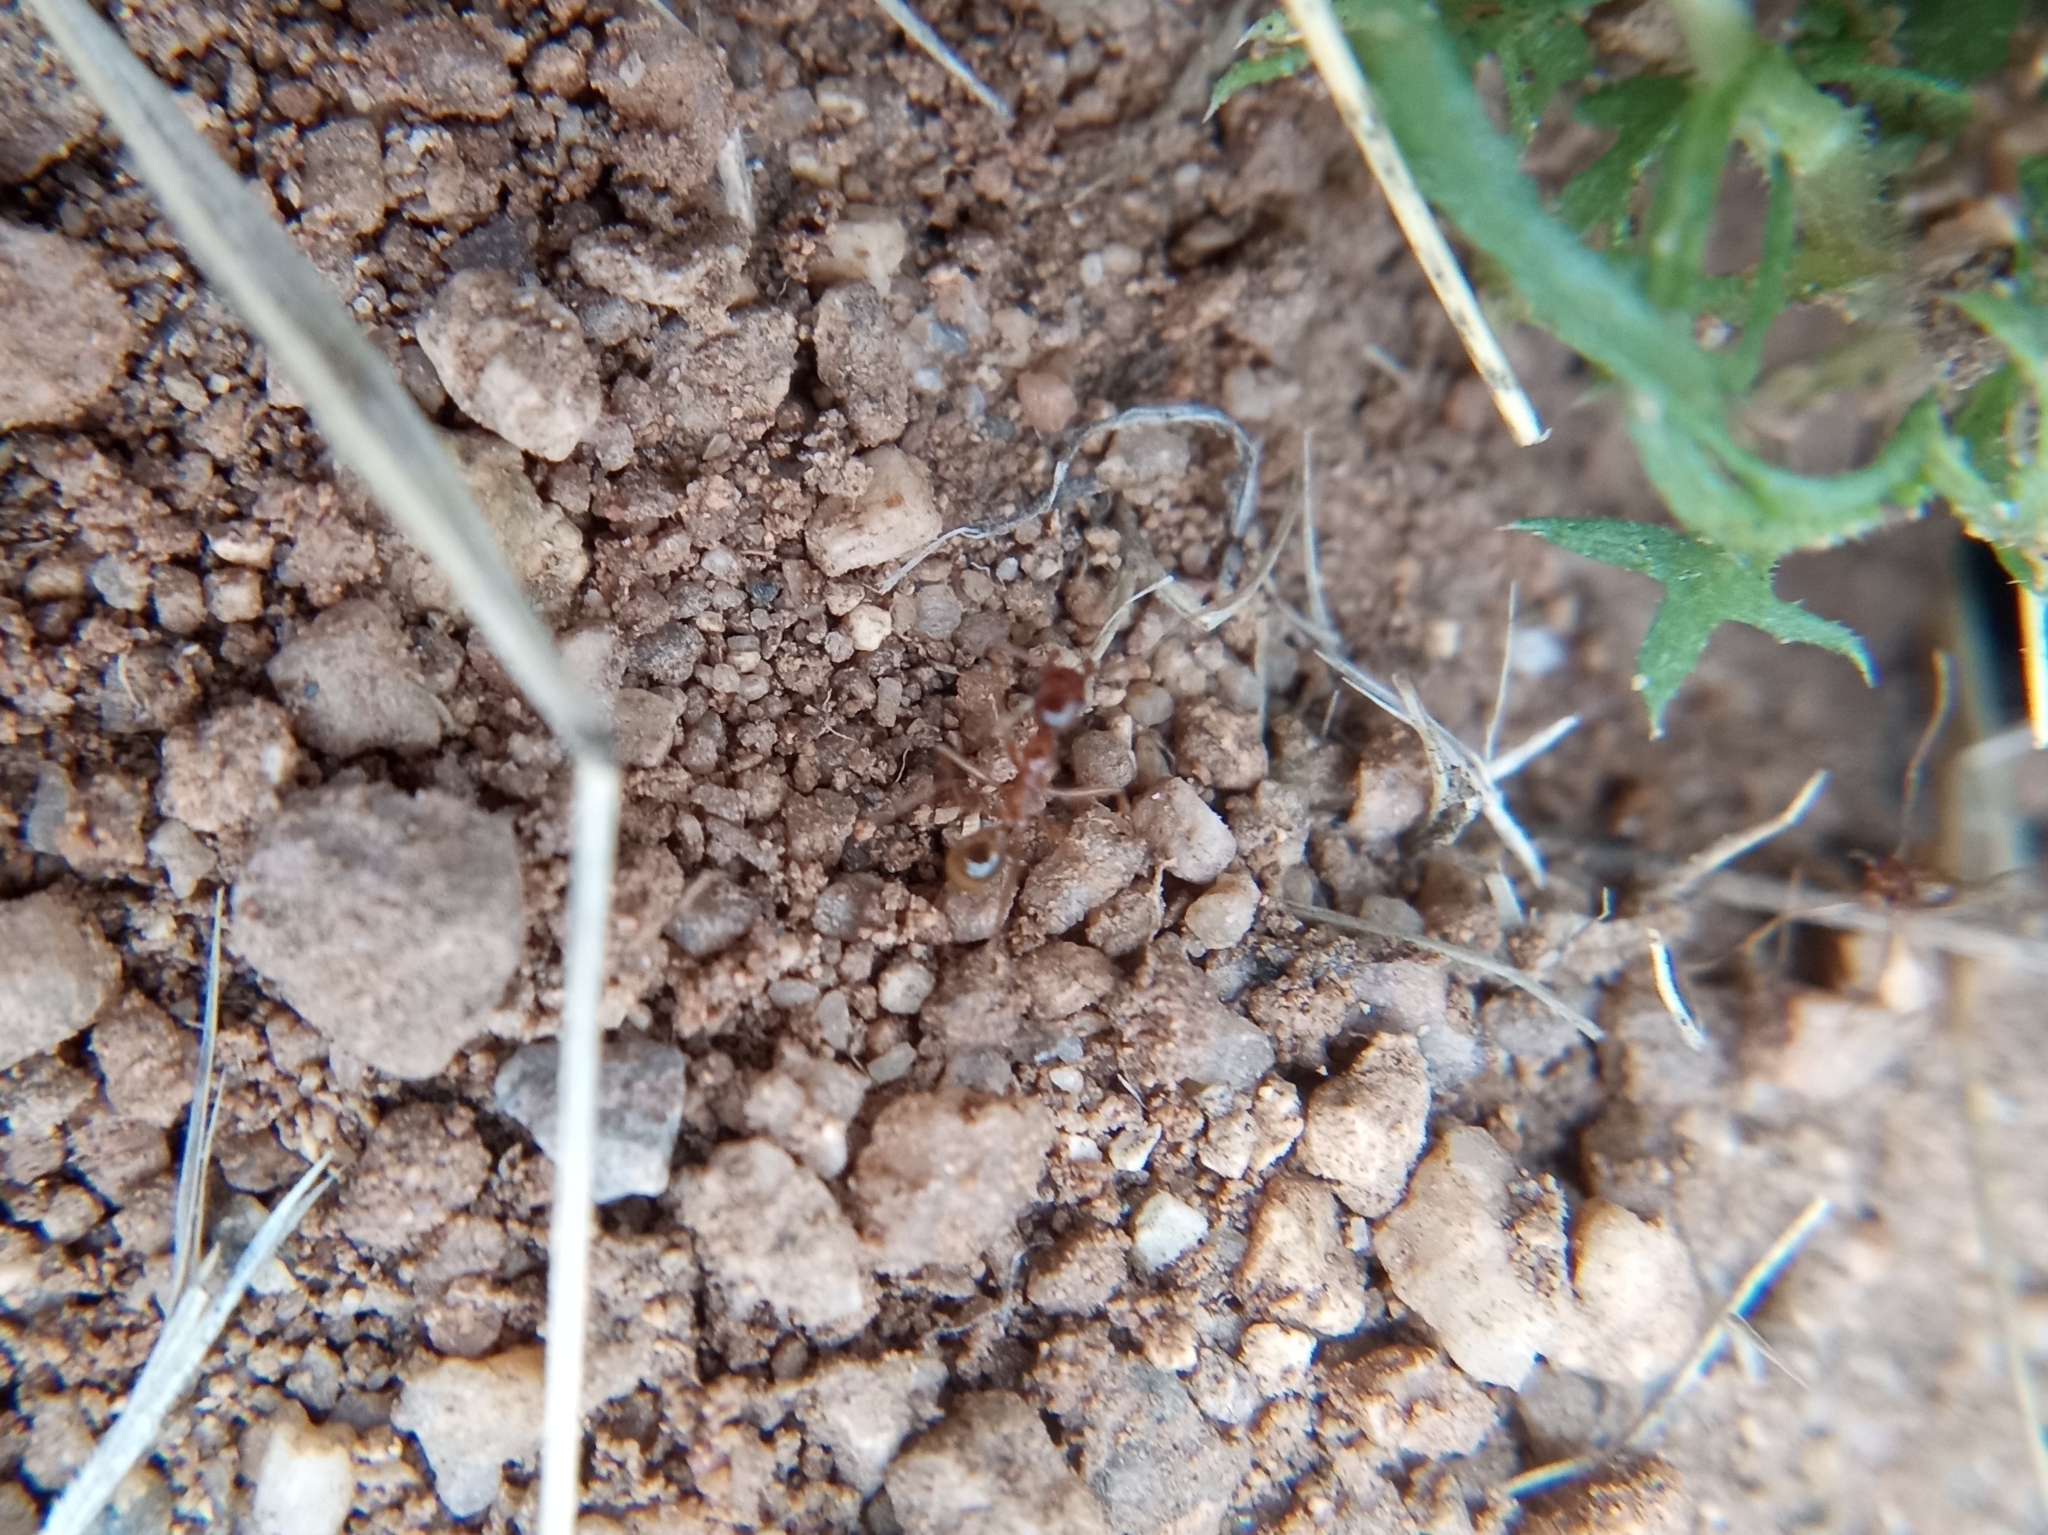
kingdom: Animalia
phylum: Arthropoda
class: Insecta
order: Hymenoptera
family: Formicidae
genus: Pheidole
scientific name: Pheidole obtusospinosa
